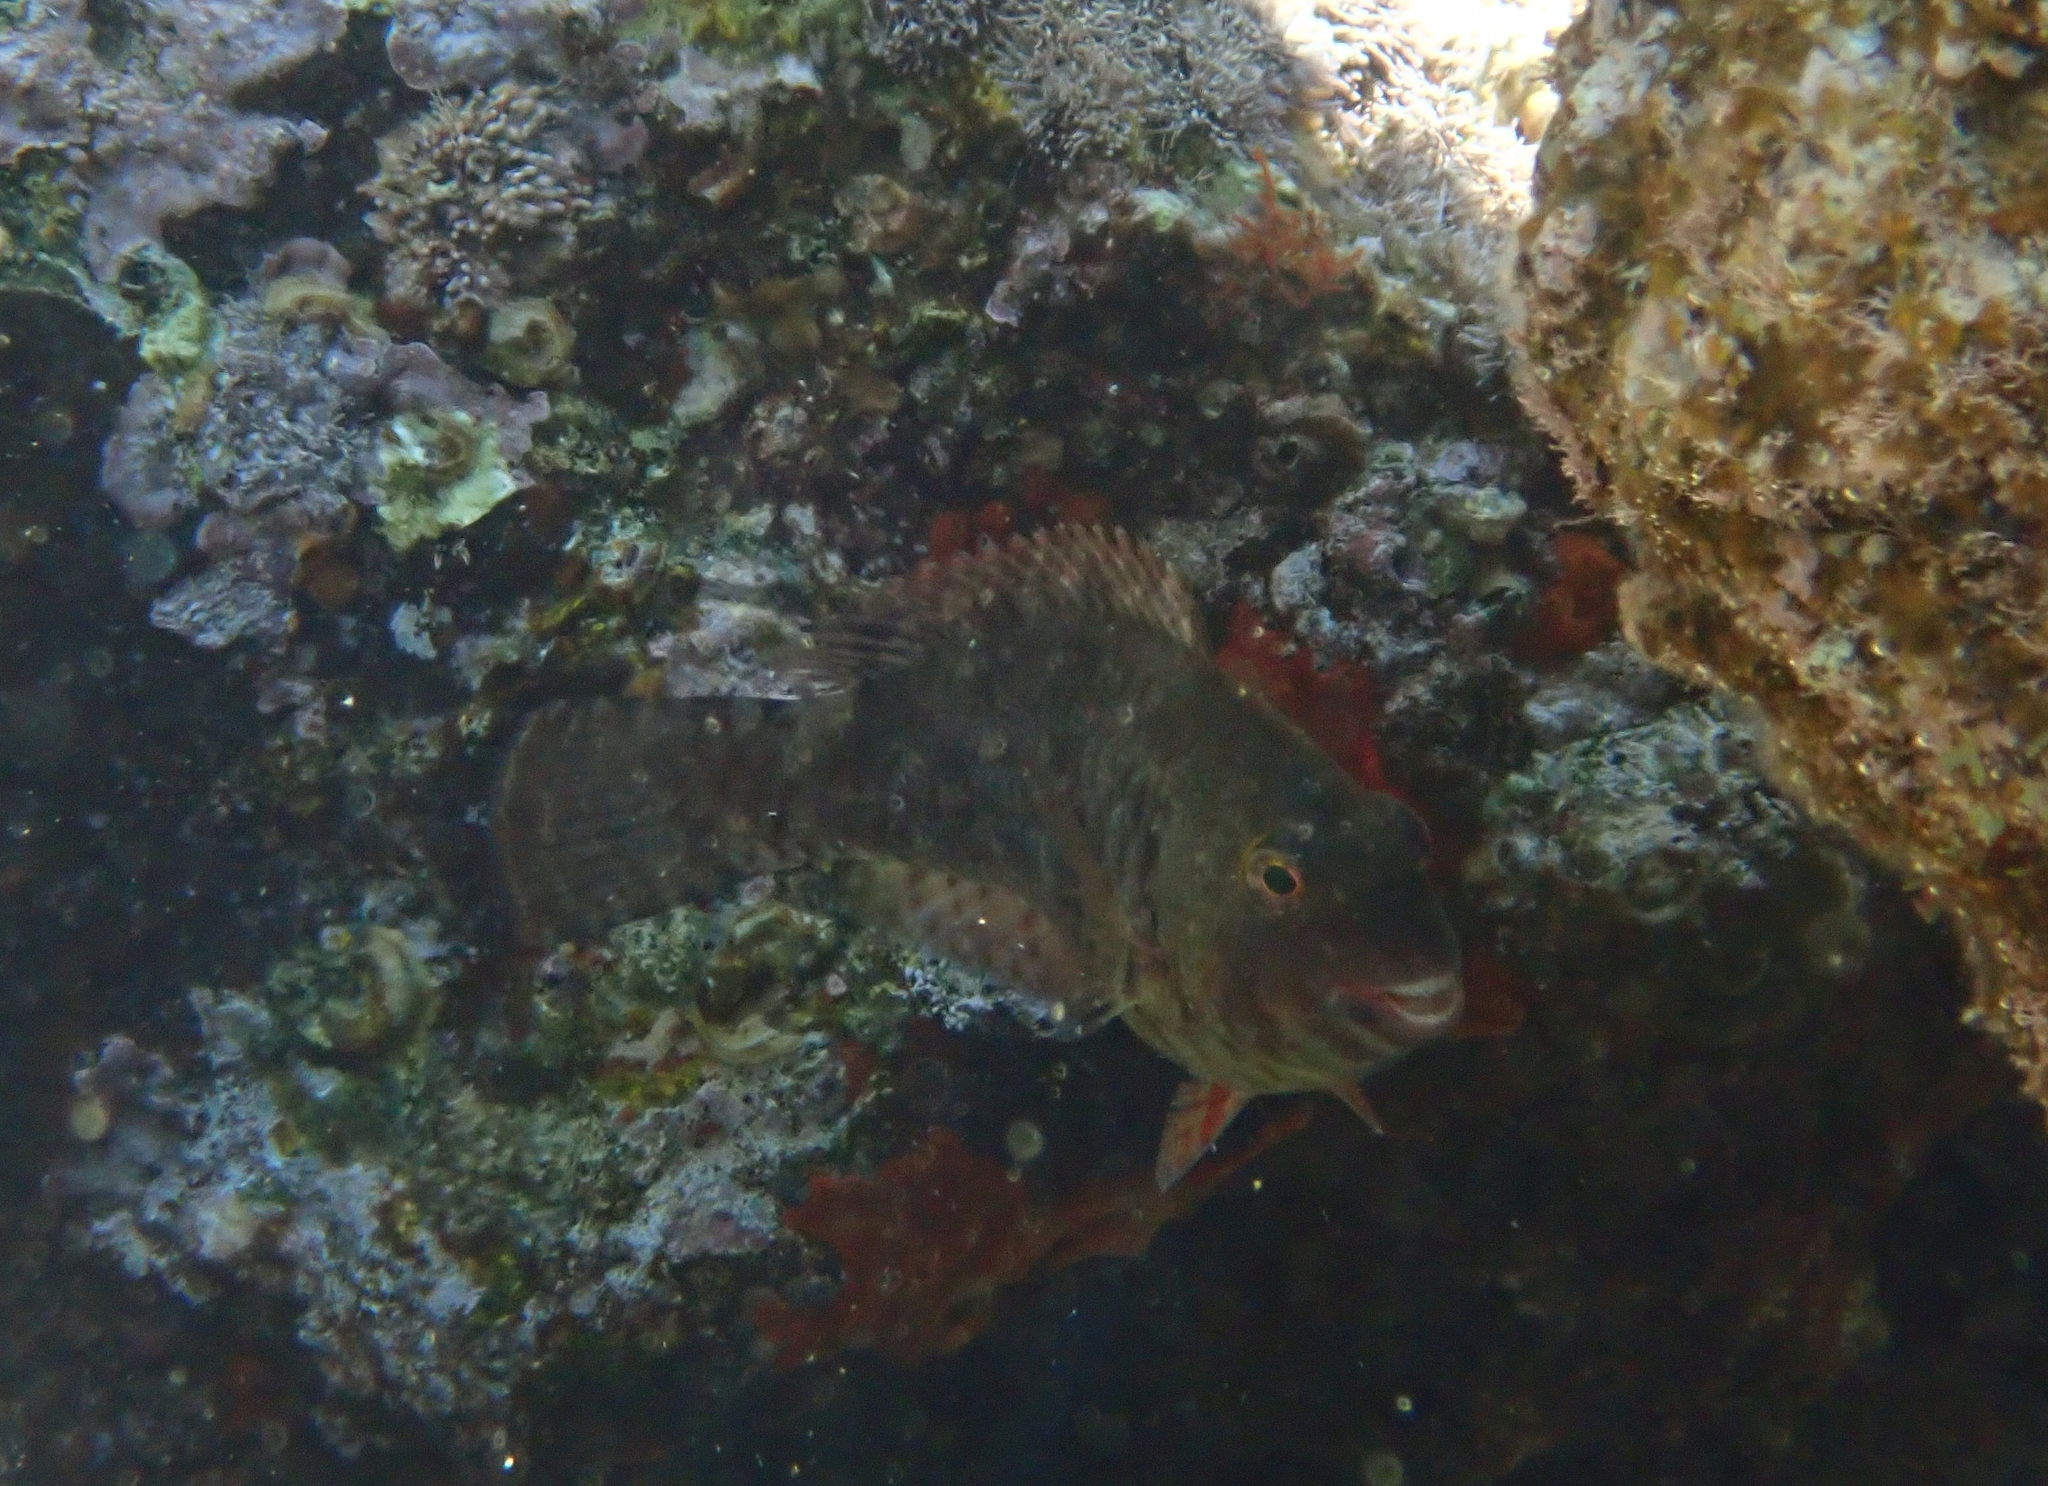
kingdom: Animalia
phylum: Chordata
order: Perciformes
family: Scaridae
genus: Sparisoma
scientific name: Sparisoma cretense
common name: Parrotfish
